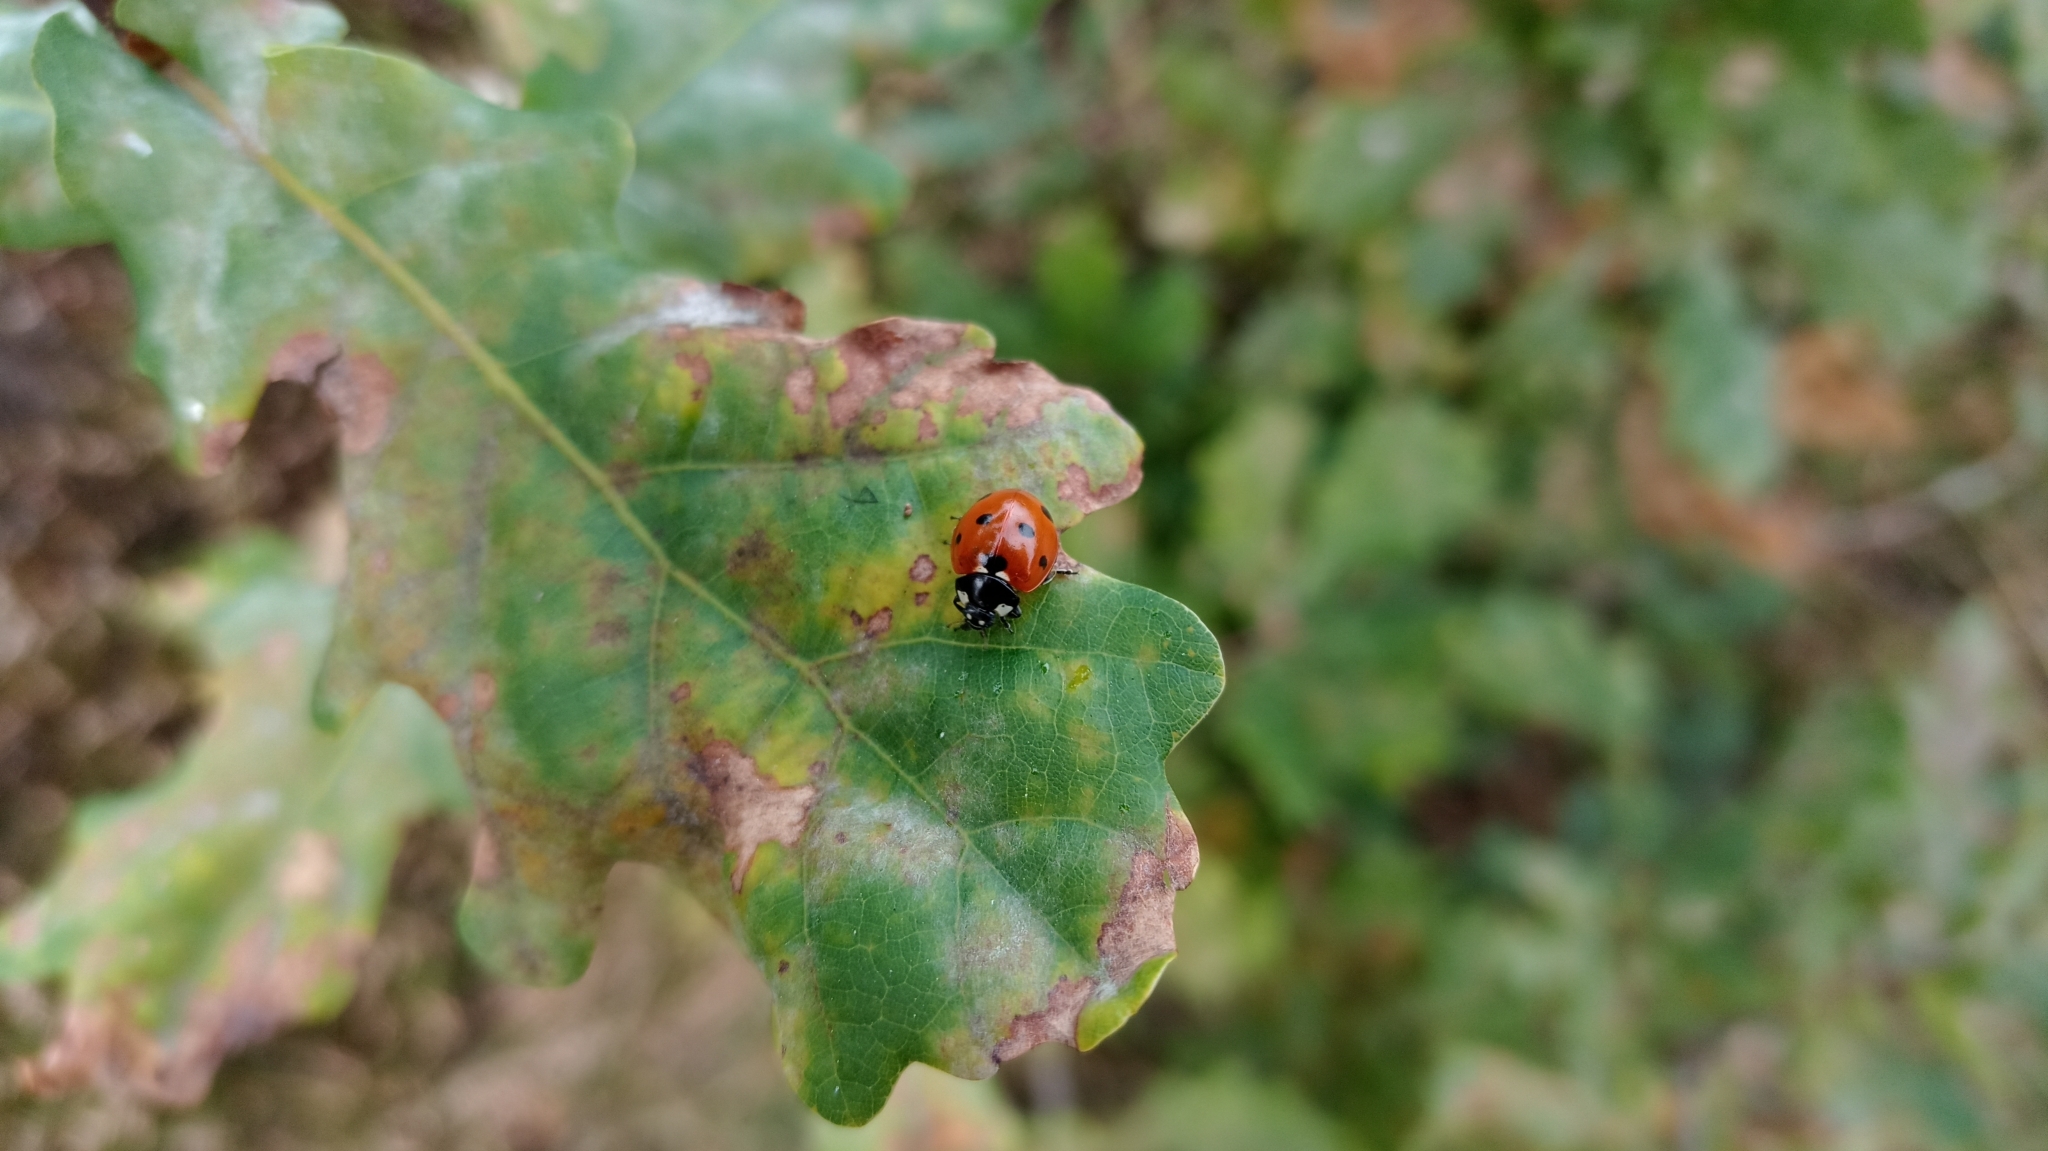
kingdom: Animalia
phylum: Arthropoda
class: Insecta
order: Coleoptera
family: Coccinellidae
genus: Coccinella
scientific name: Coccinella septempunctata
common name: Sevenspotted lady beetle
